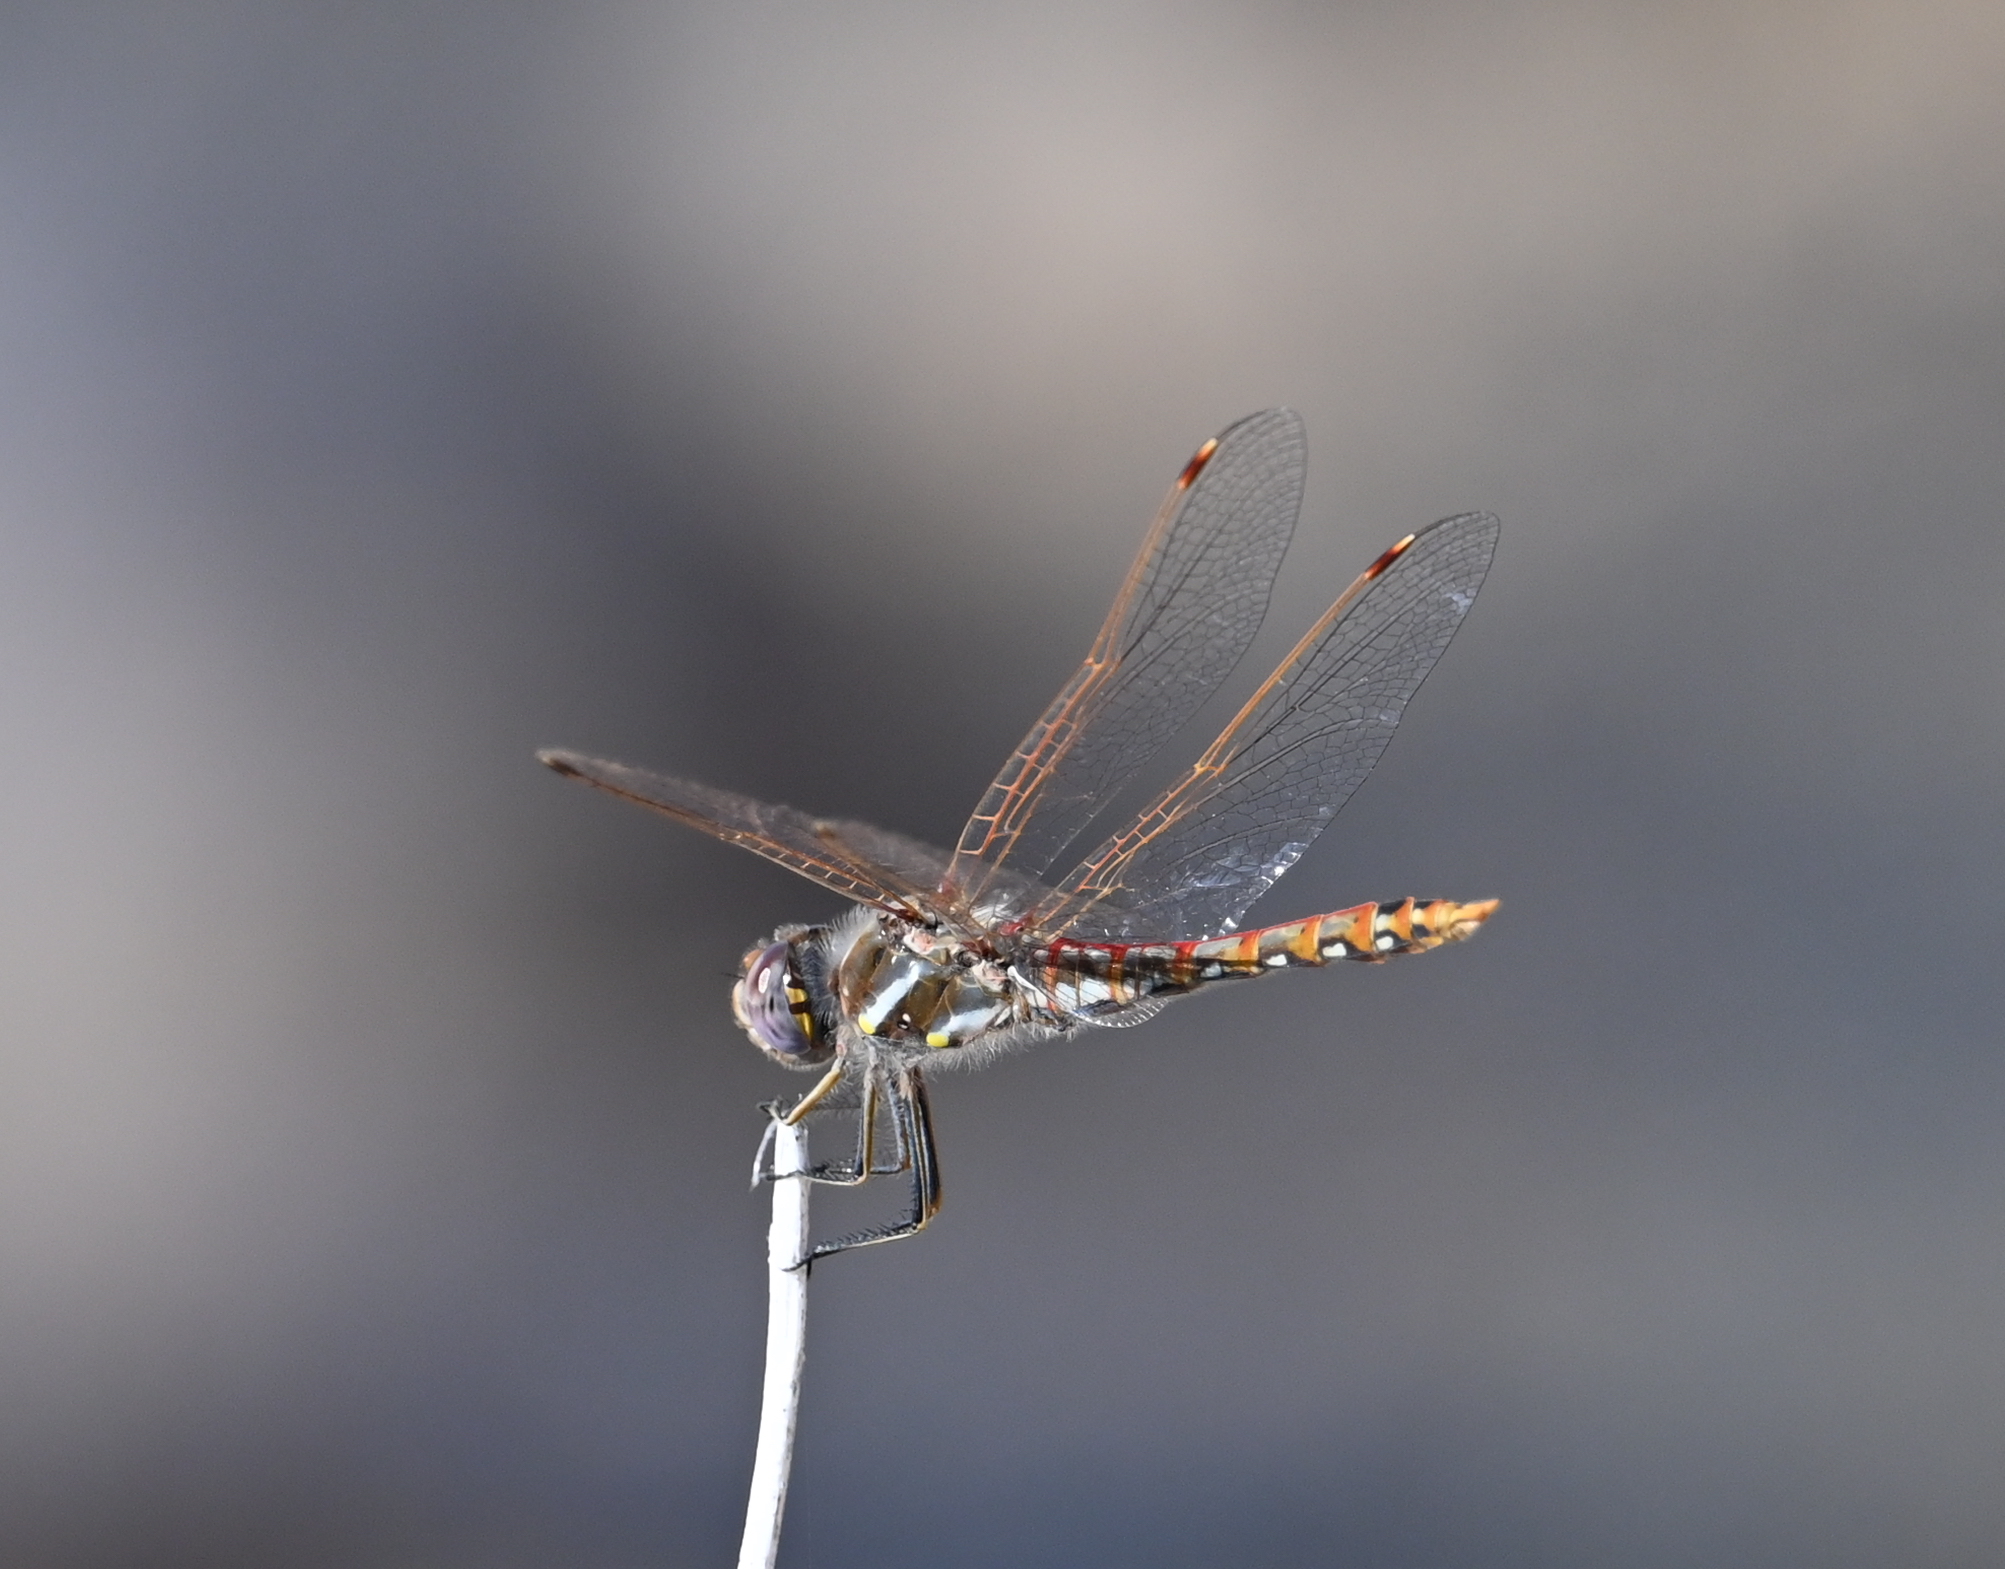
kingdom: Animalia
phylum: Arthropoda
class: Insecta
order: Odonata
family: Libellulidae
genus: Sympetrum
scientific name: Sympetrum corruptum
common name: Variegated meadowhawk
